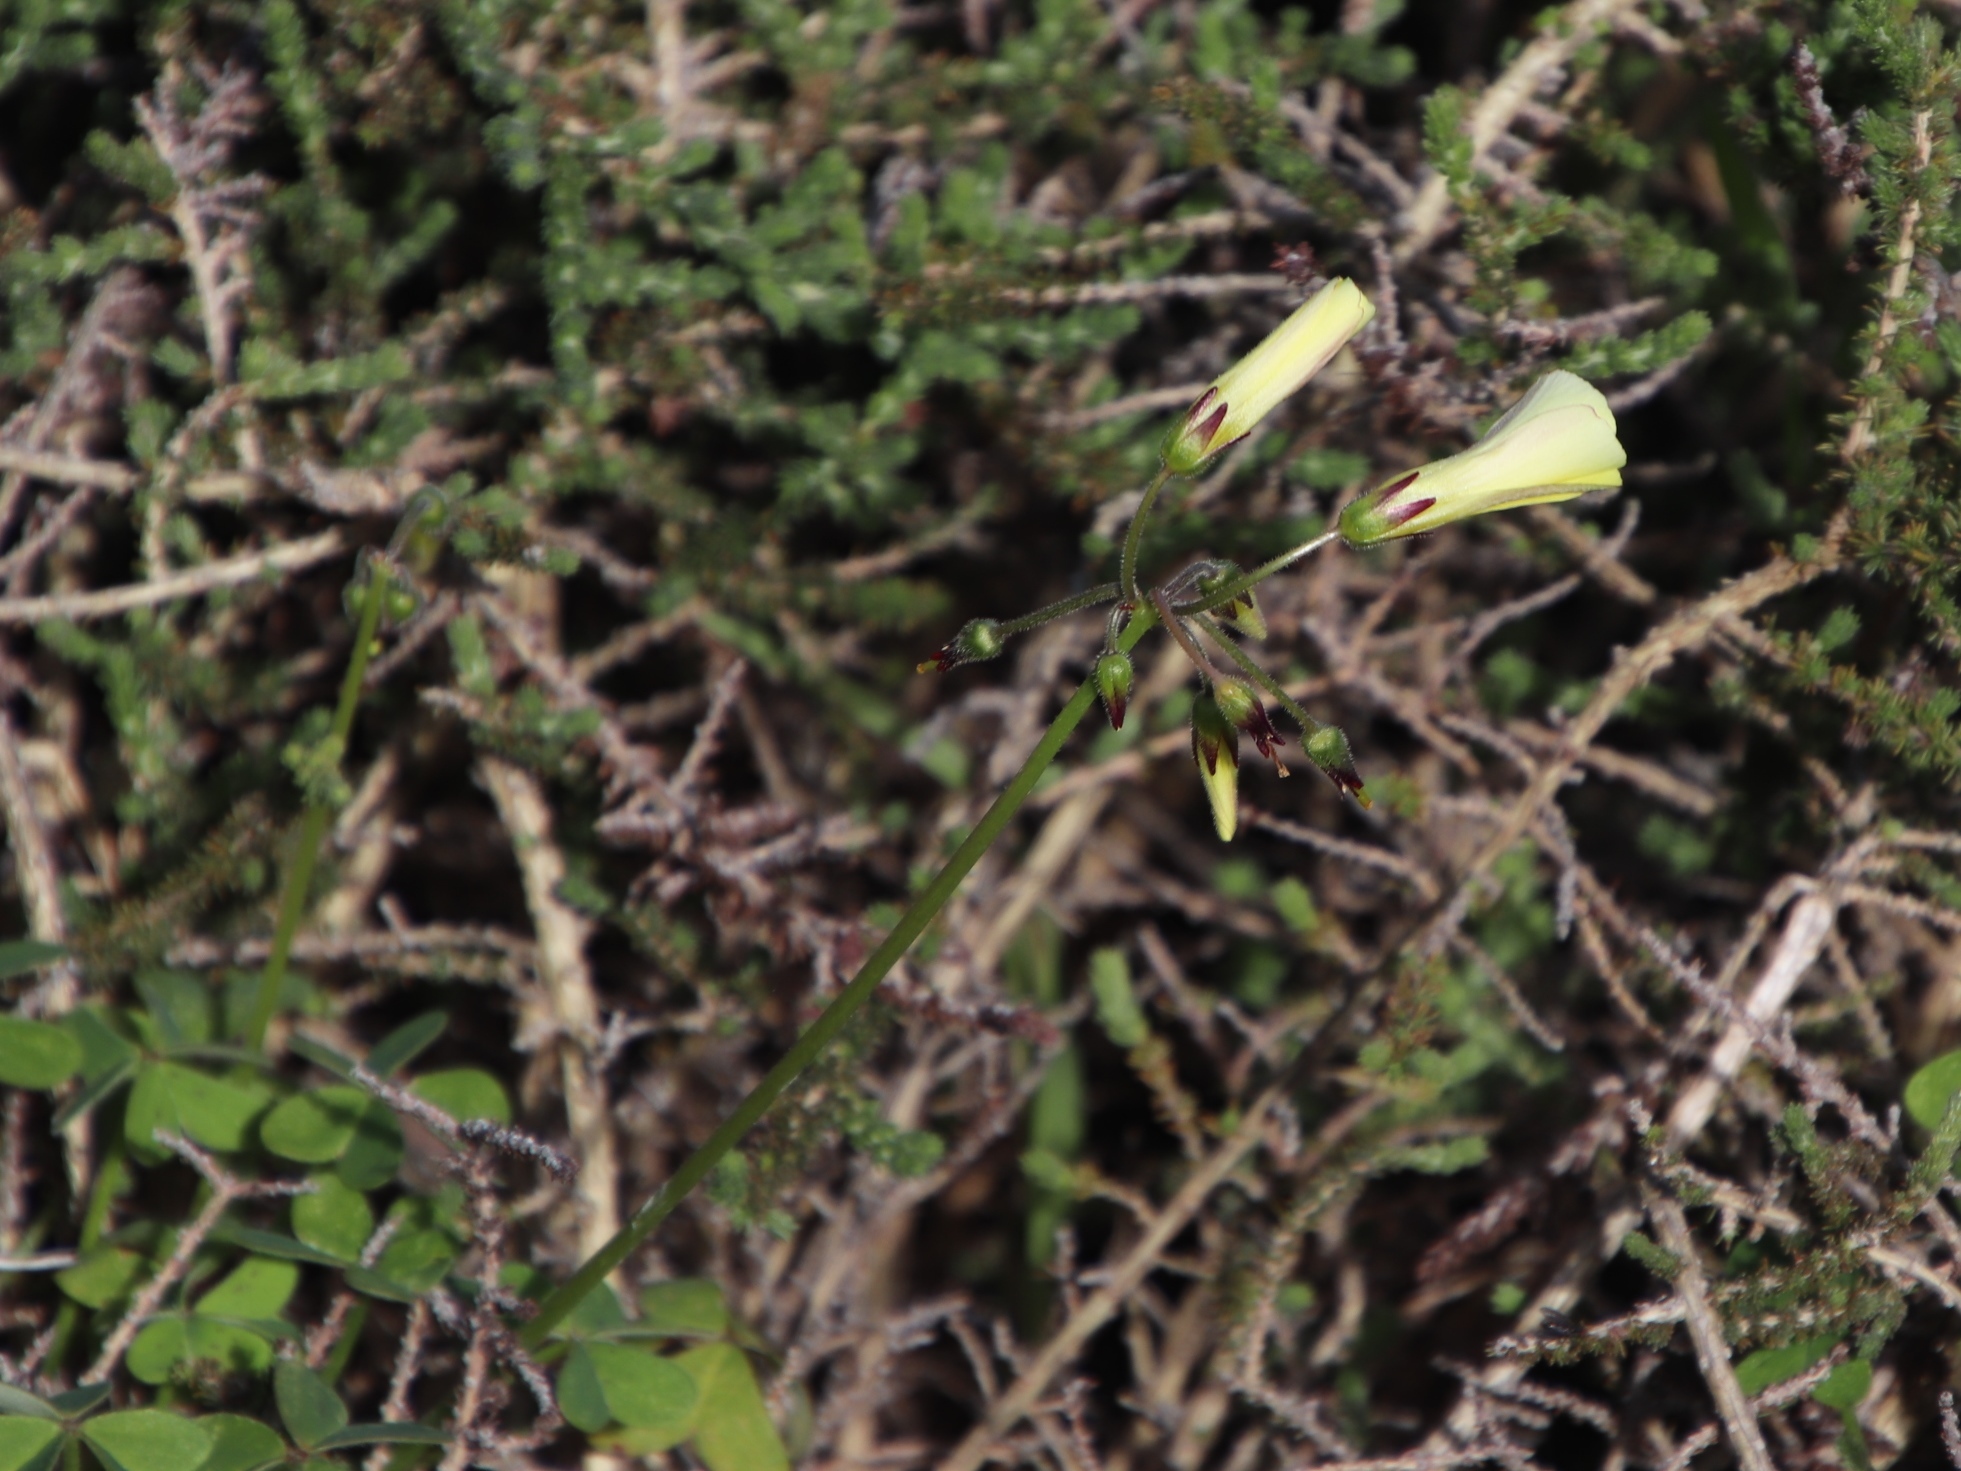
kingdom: Plantae
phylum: Tracheophyta
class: Magnoliopsida
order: Oxalidales
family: Oxalidaceae
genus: Oxalis
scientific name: Oxalis pes-caprae
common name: Bermuda-buttercup
